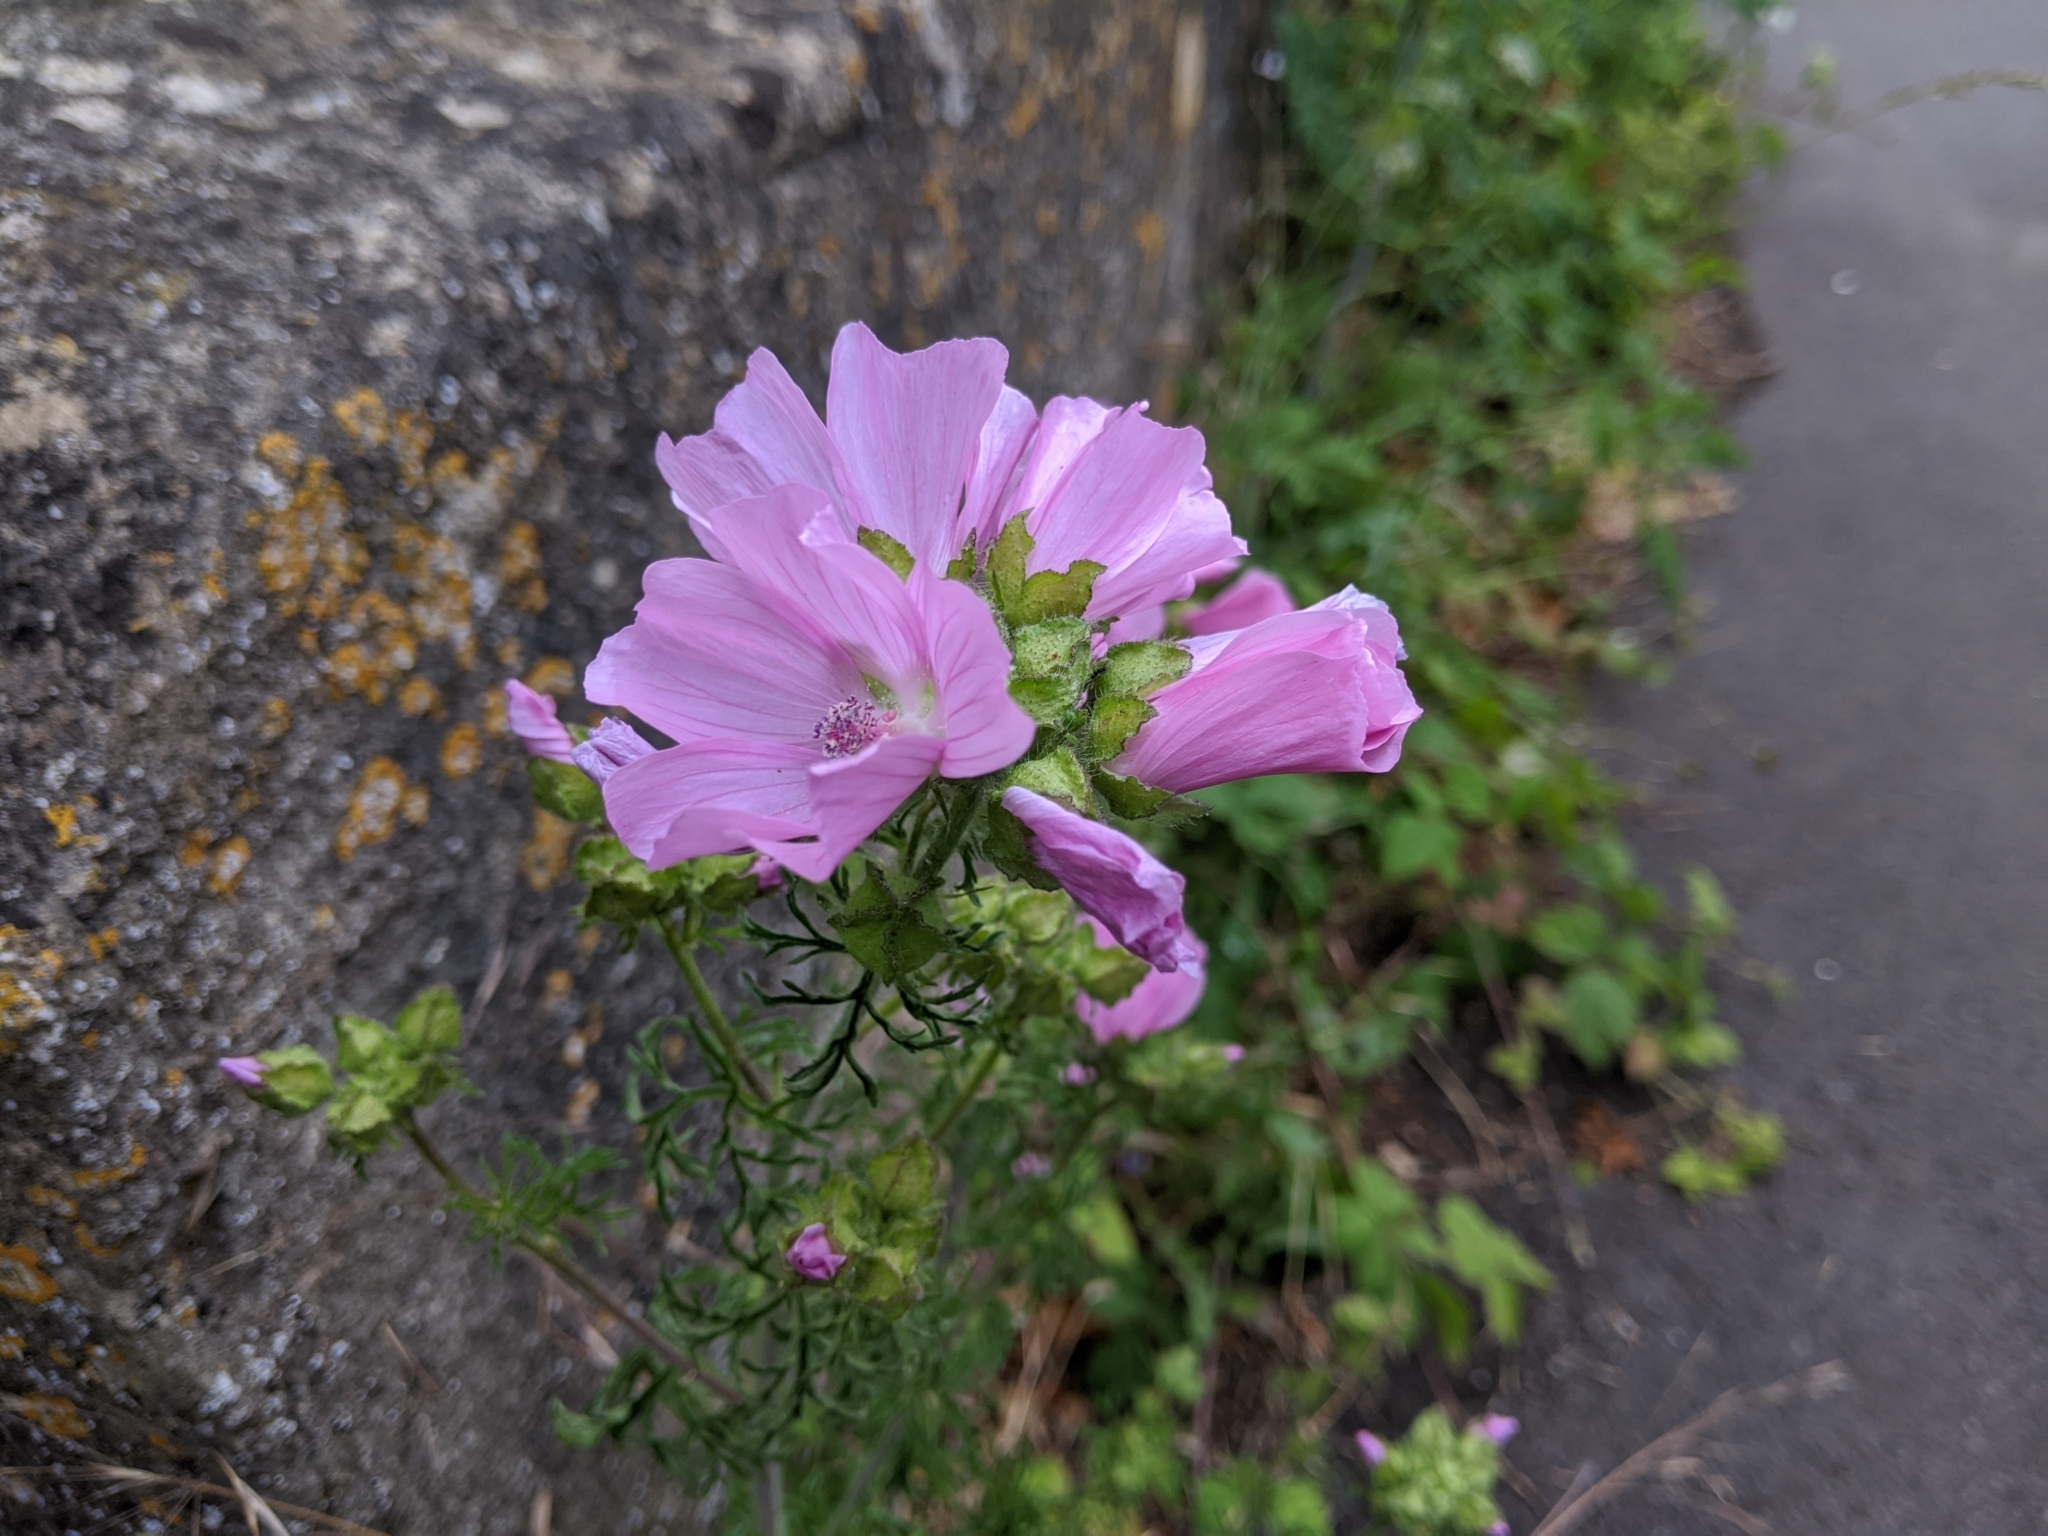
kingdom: Plantae
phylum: Tracheophyta
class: Magnoliopsida
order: Malvales
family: Malvaceae
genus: Malva
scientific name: Malva moschata
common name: Musk mallow
